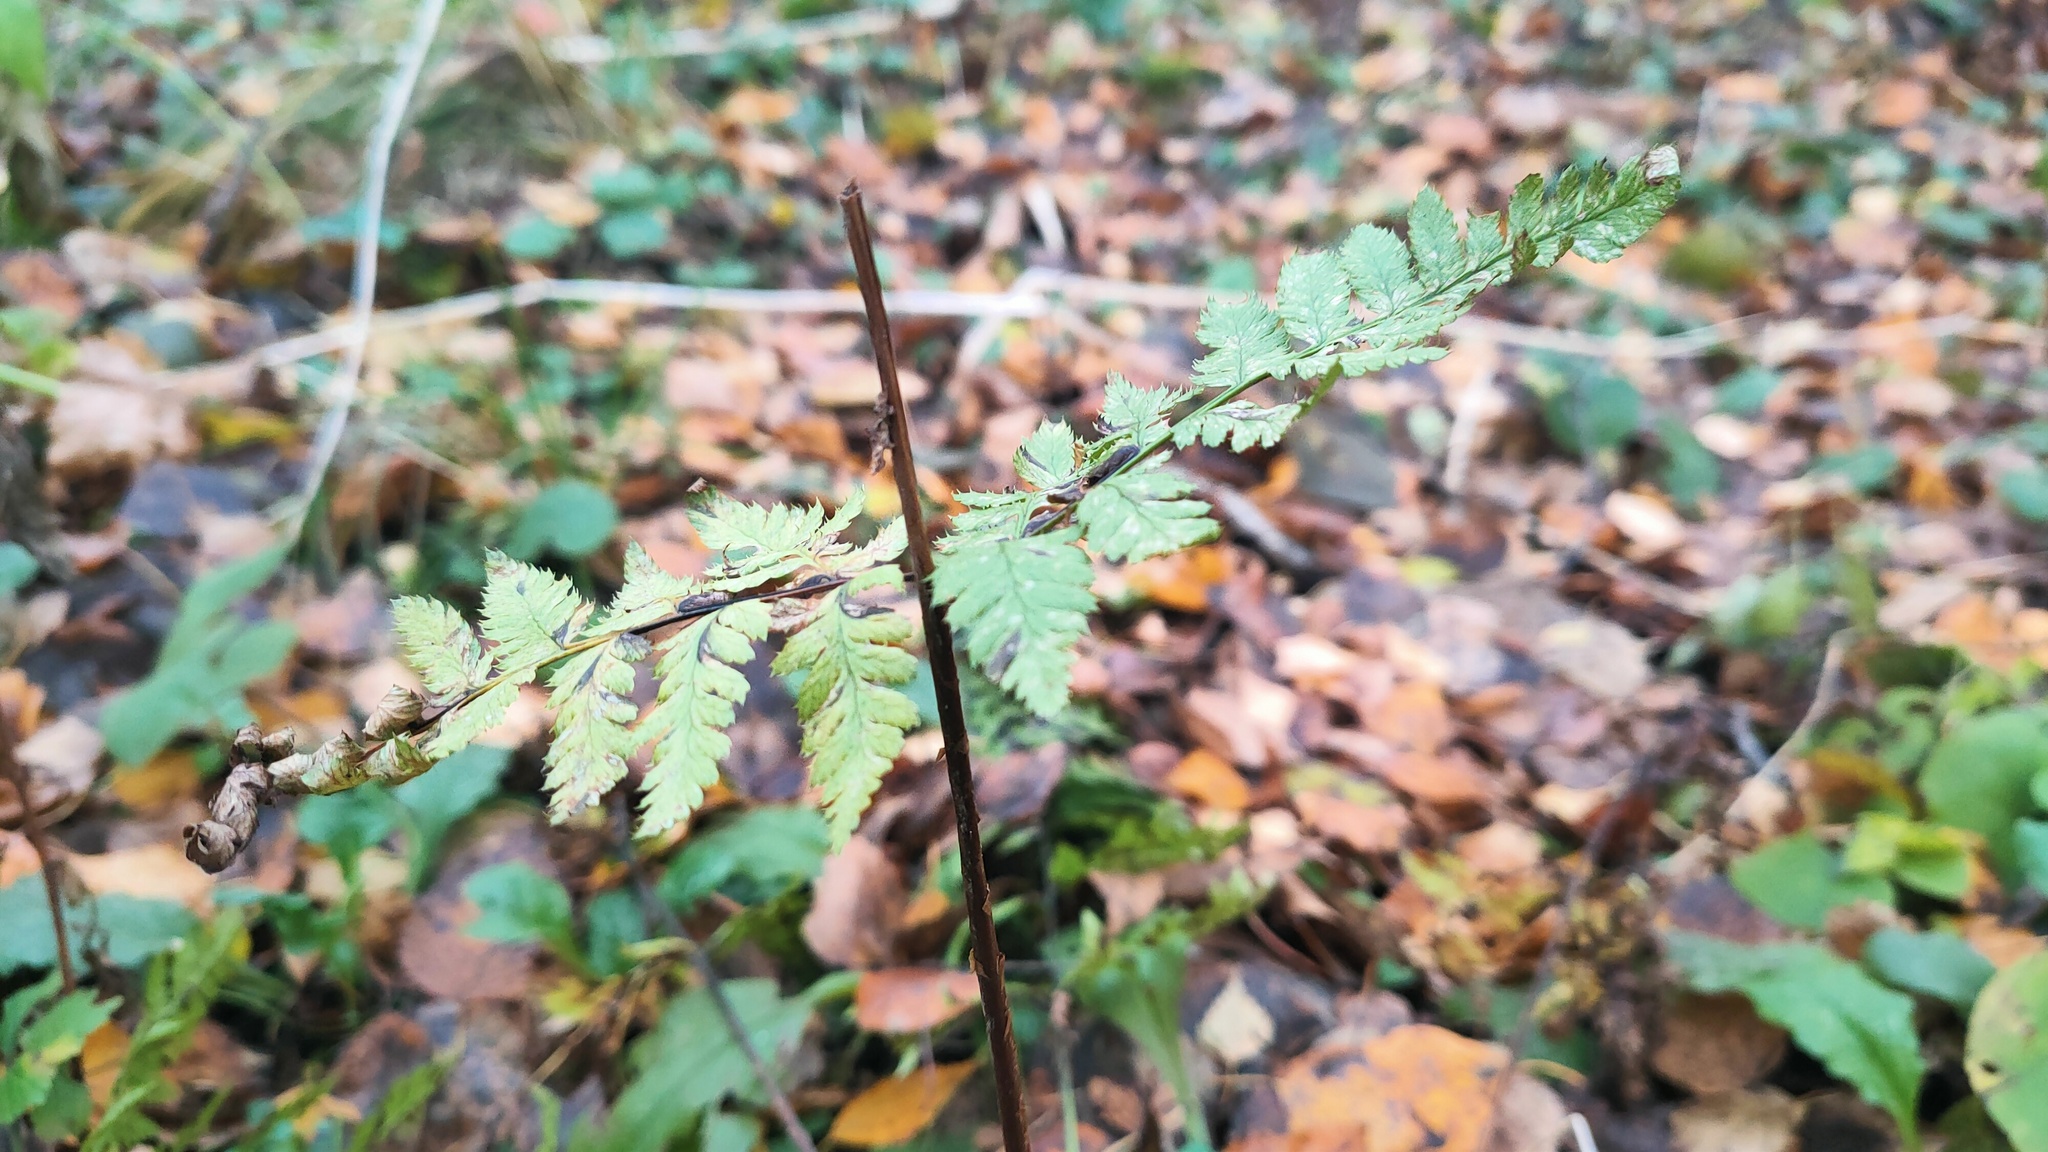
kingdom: Plantae
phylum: Tracheophyta
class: Polypodiopsida
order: Polypodiales
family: Dryopteridaceae
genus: Dryopteris
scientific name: Dryopteris carthusiana
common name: Narrow buckler-fern
